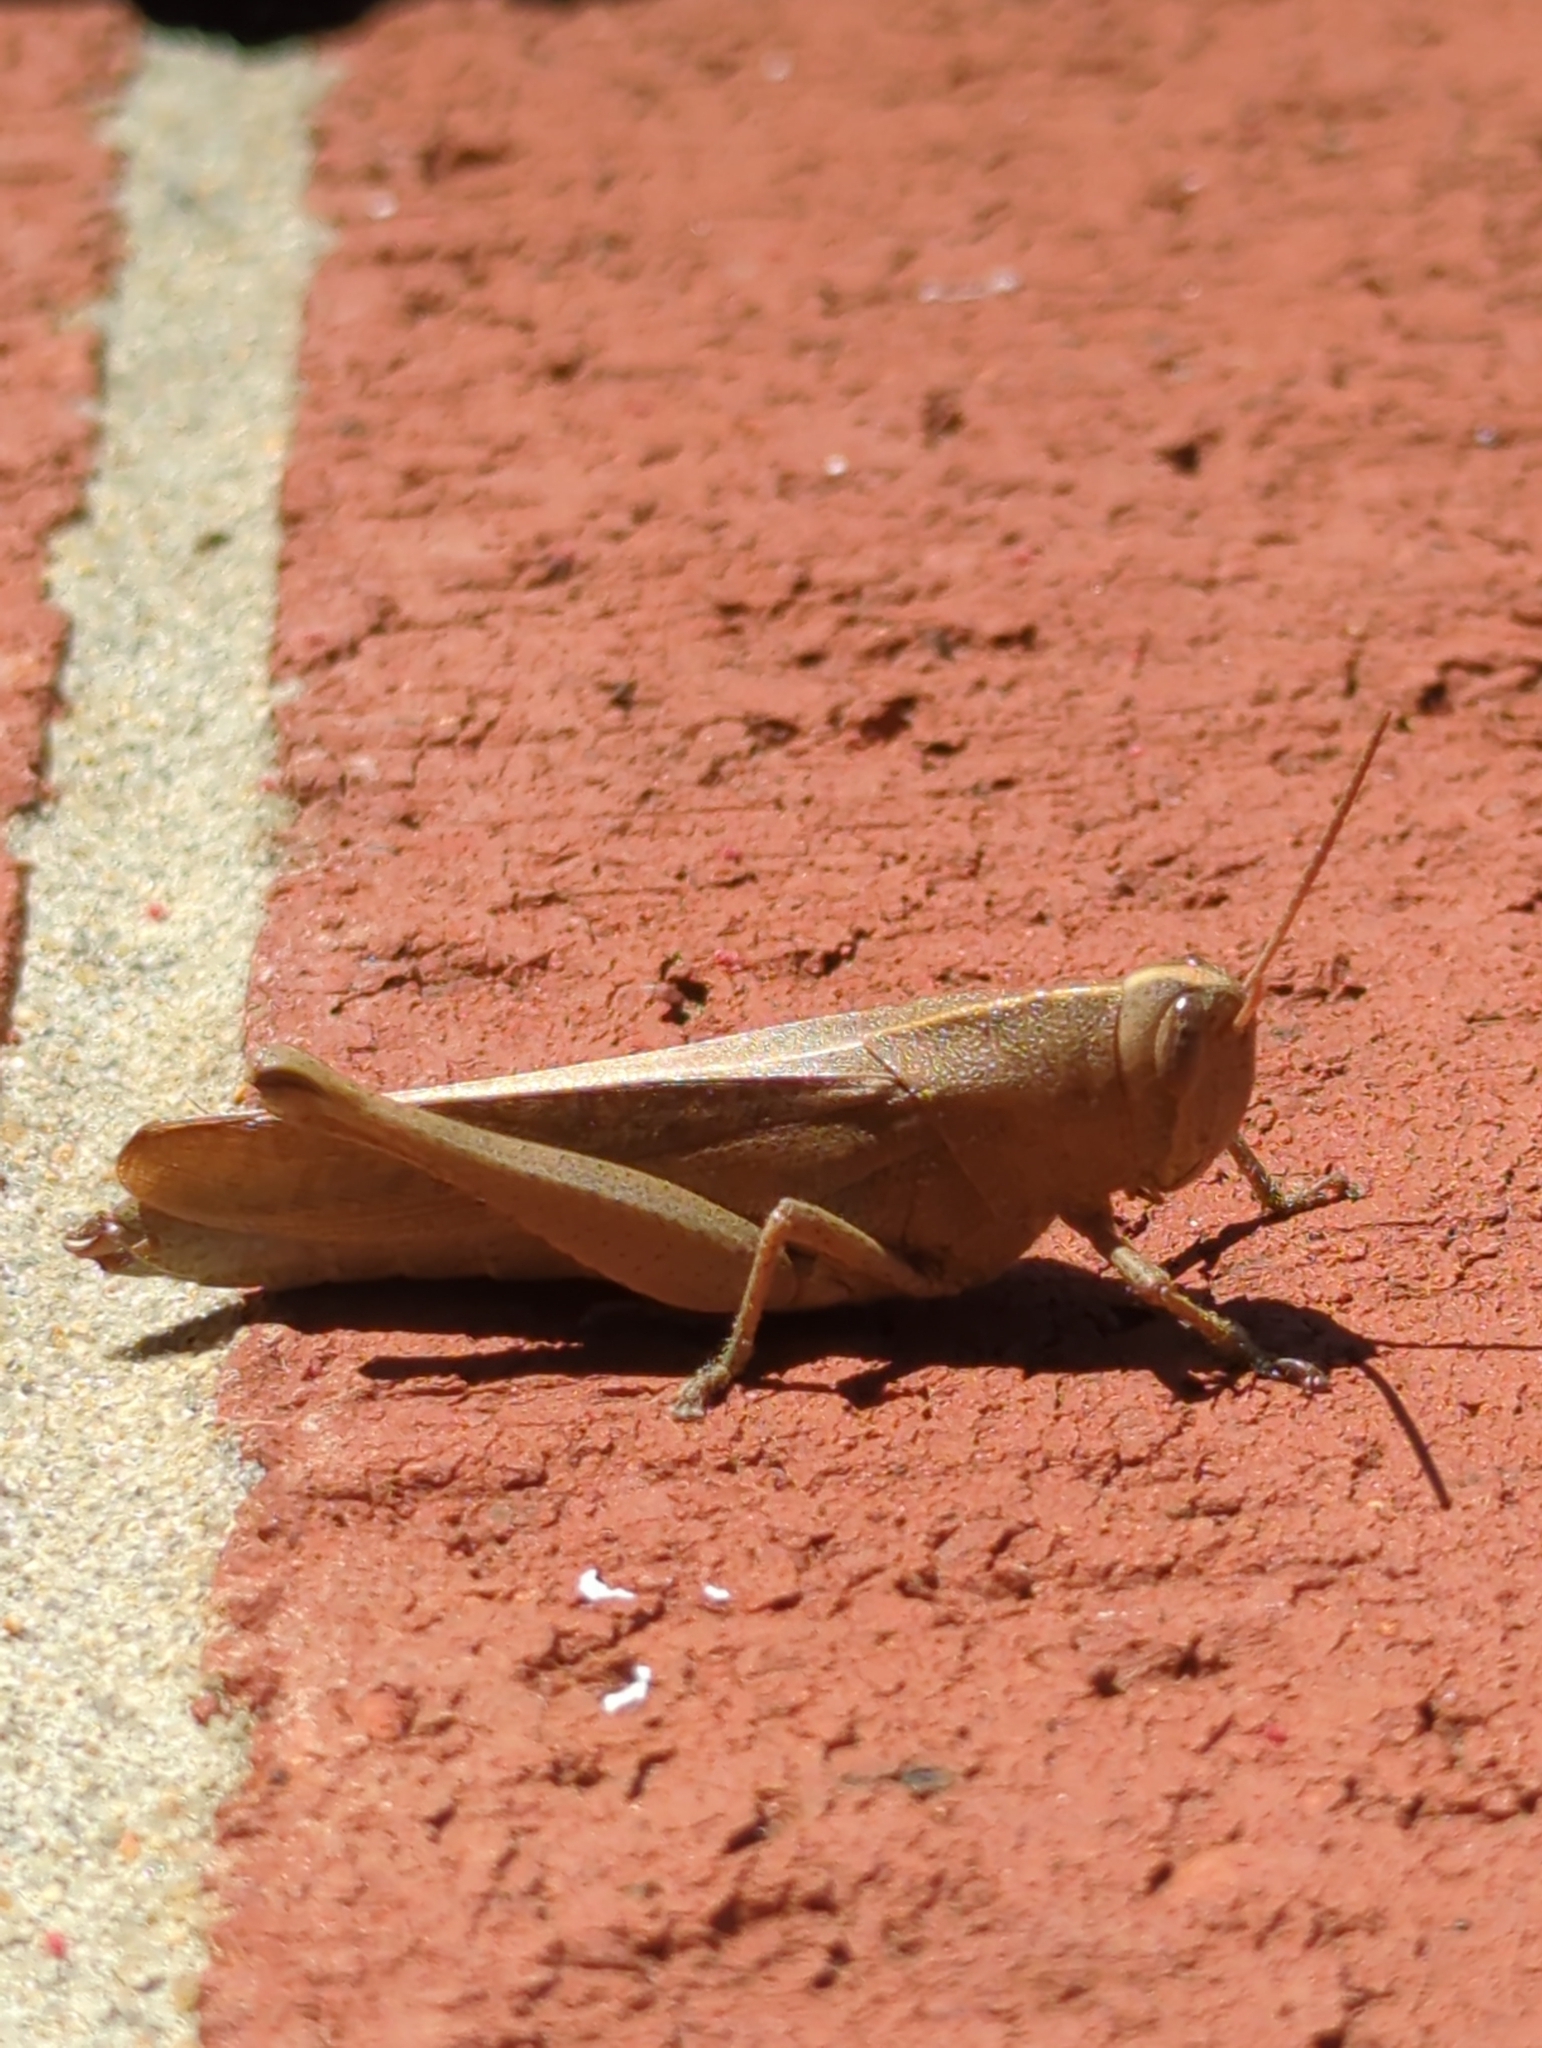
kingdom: Animalia
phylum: Arthropoda
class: Insecta
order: Orthoptera
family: Acrididae
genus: Schistocerca
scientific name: Schistocerca damnifica
